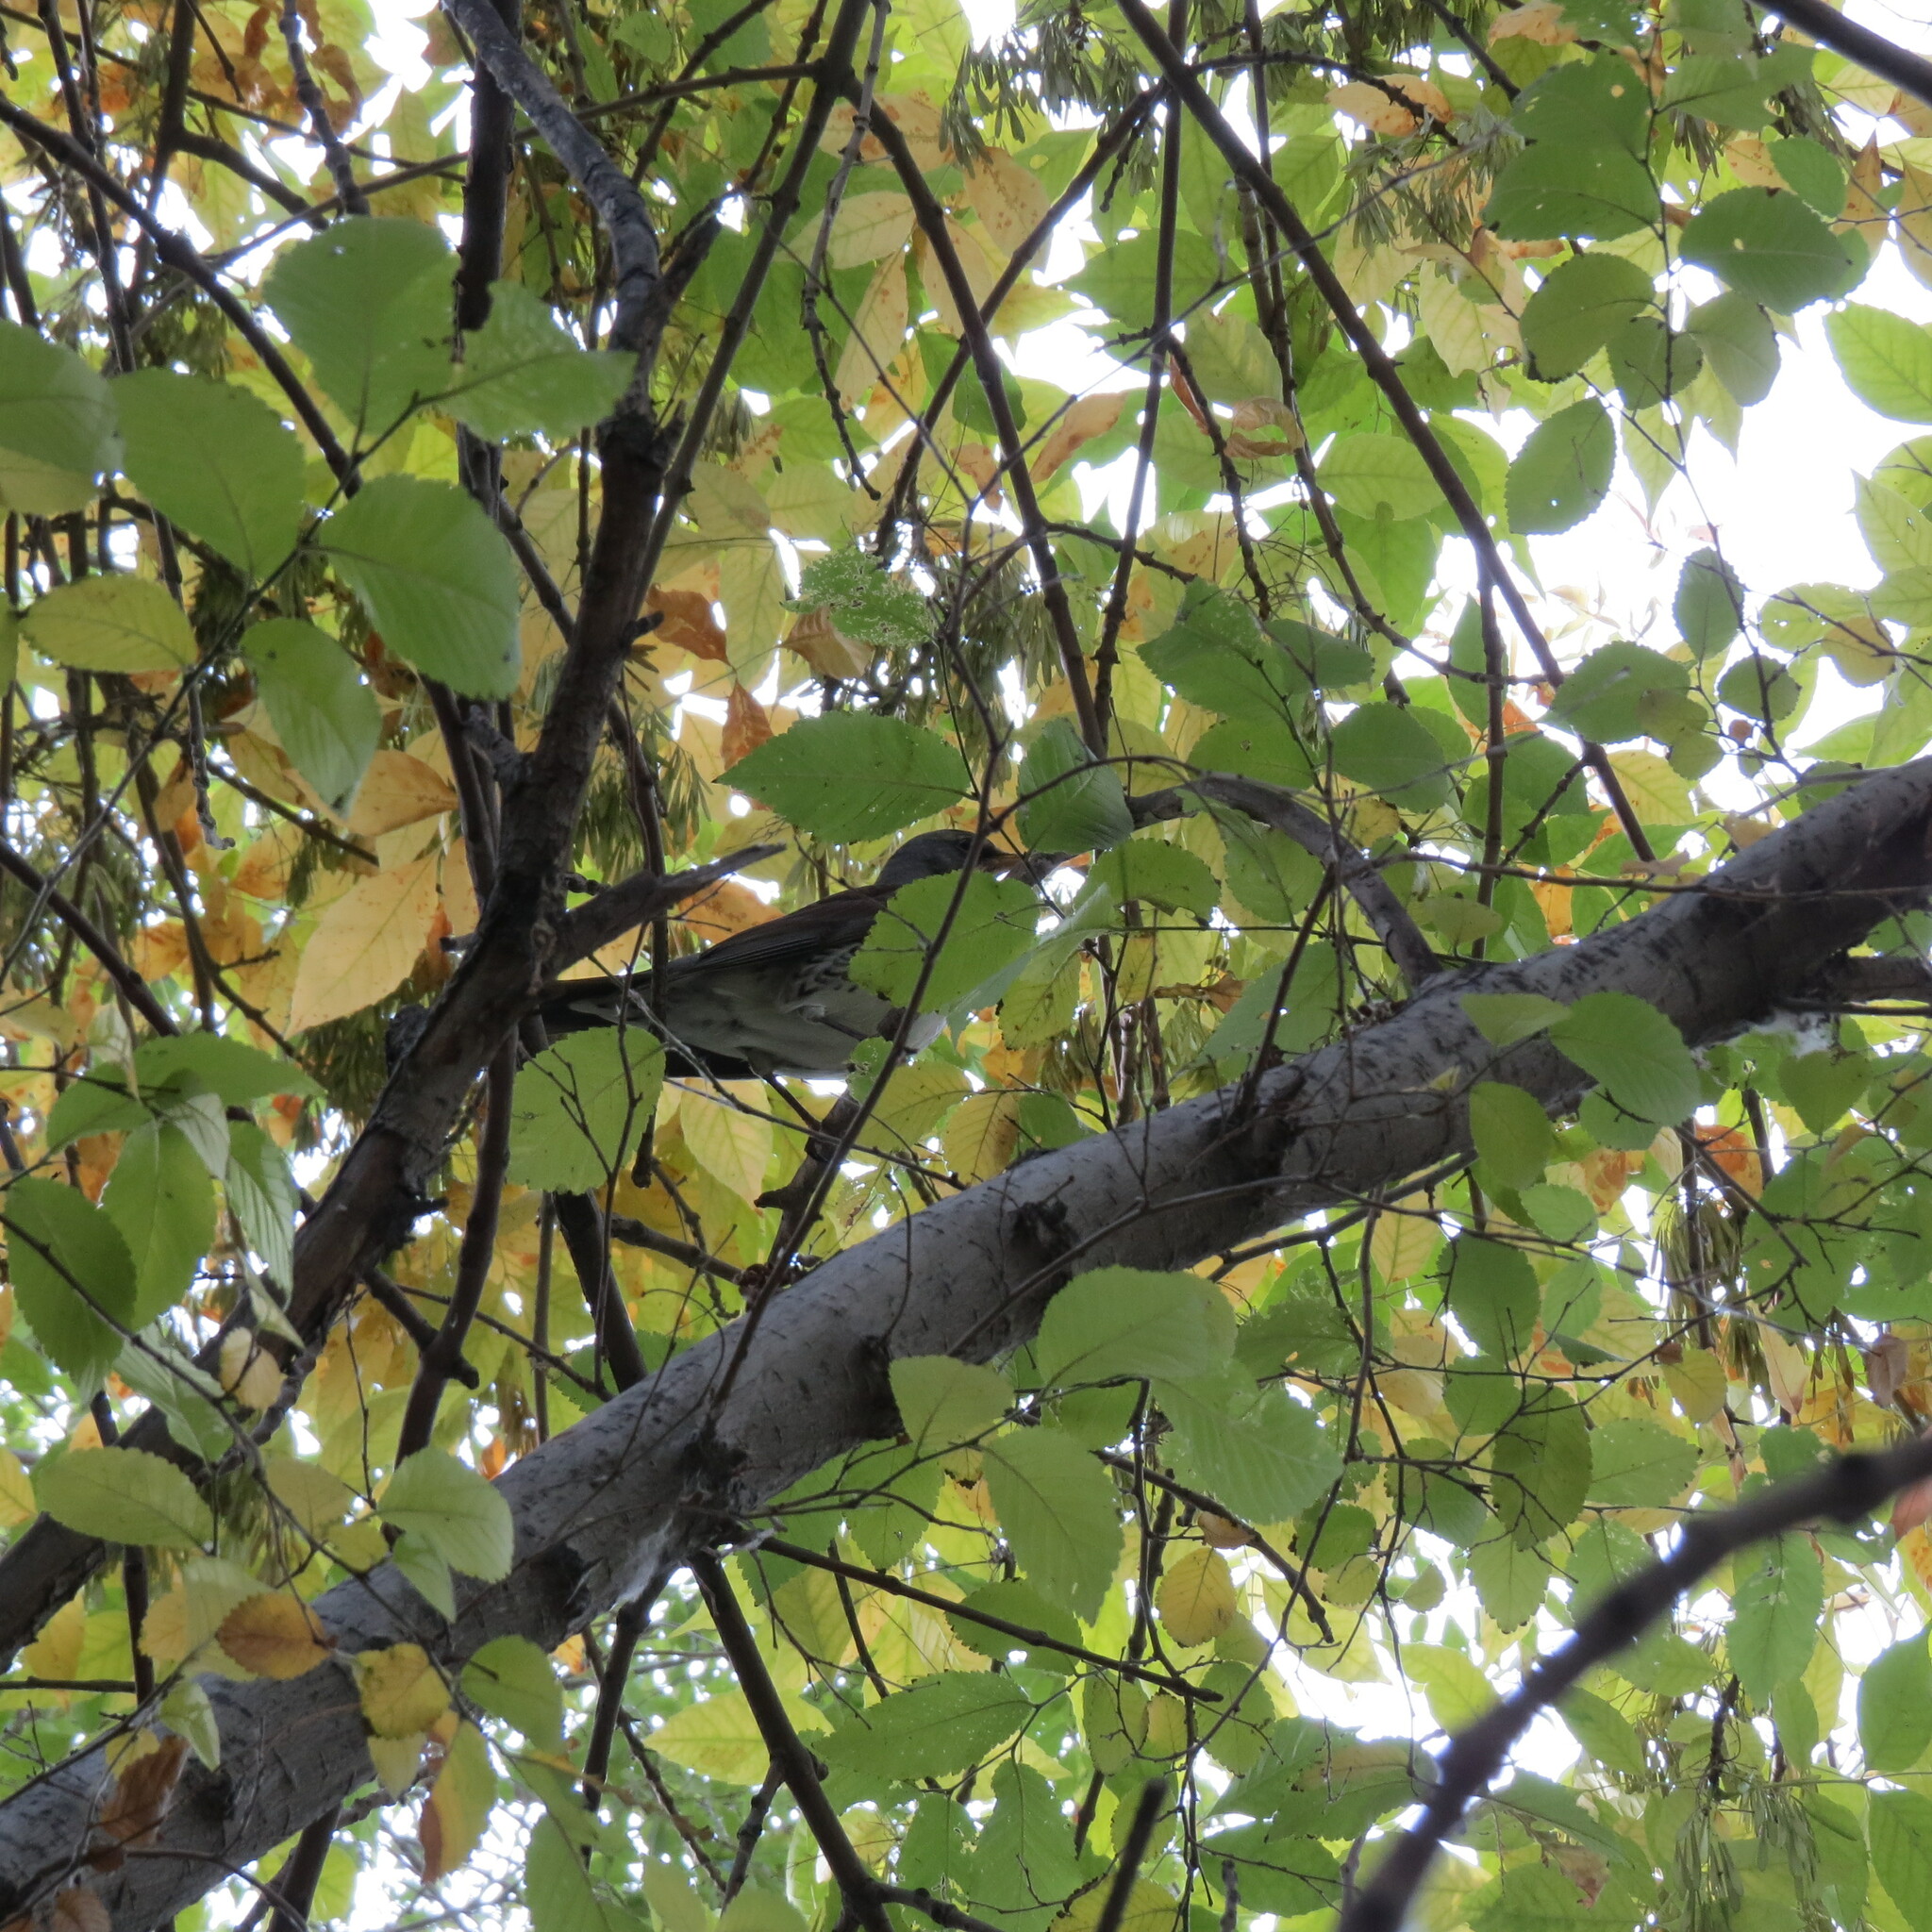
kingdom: Animalia
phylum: Chordata
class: Aves
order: Passeriformes
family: Turdidae
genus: Turdus
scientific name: Turdus pilaris
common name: Fieldfare
